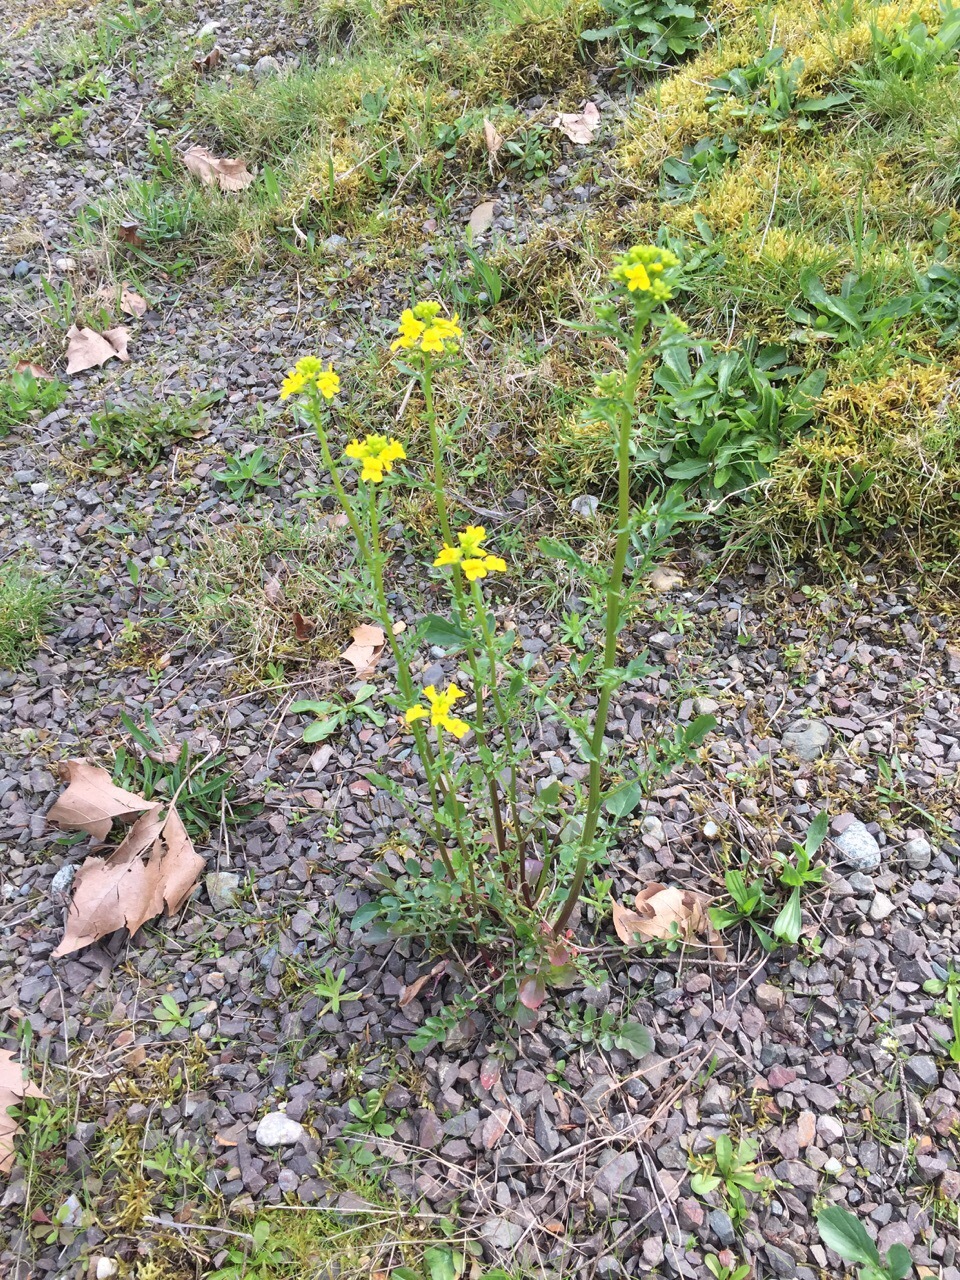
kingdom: Plantae
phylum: Tracheophyta
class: Magnoliopsida
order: Brassicales
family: Brassicaceae
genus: Barbarea
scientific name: Barbarea verna
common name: American cress
